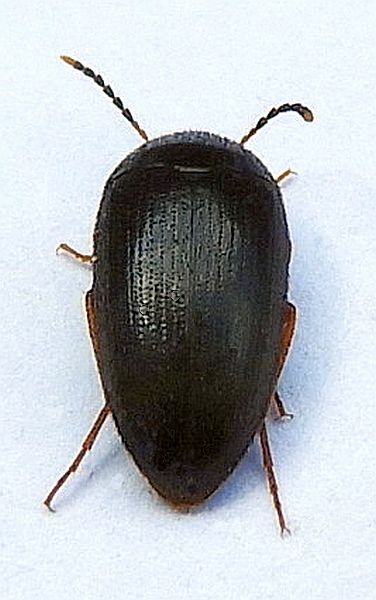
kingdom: Animalia
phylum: Arthropoda
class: Insecta
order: Coleoptera
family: Tetratomidae
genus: Eustrophopsis
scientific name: Eustrophopsis bicolor
